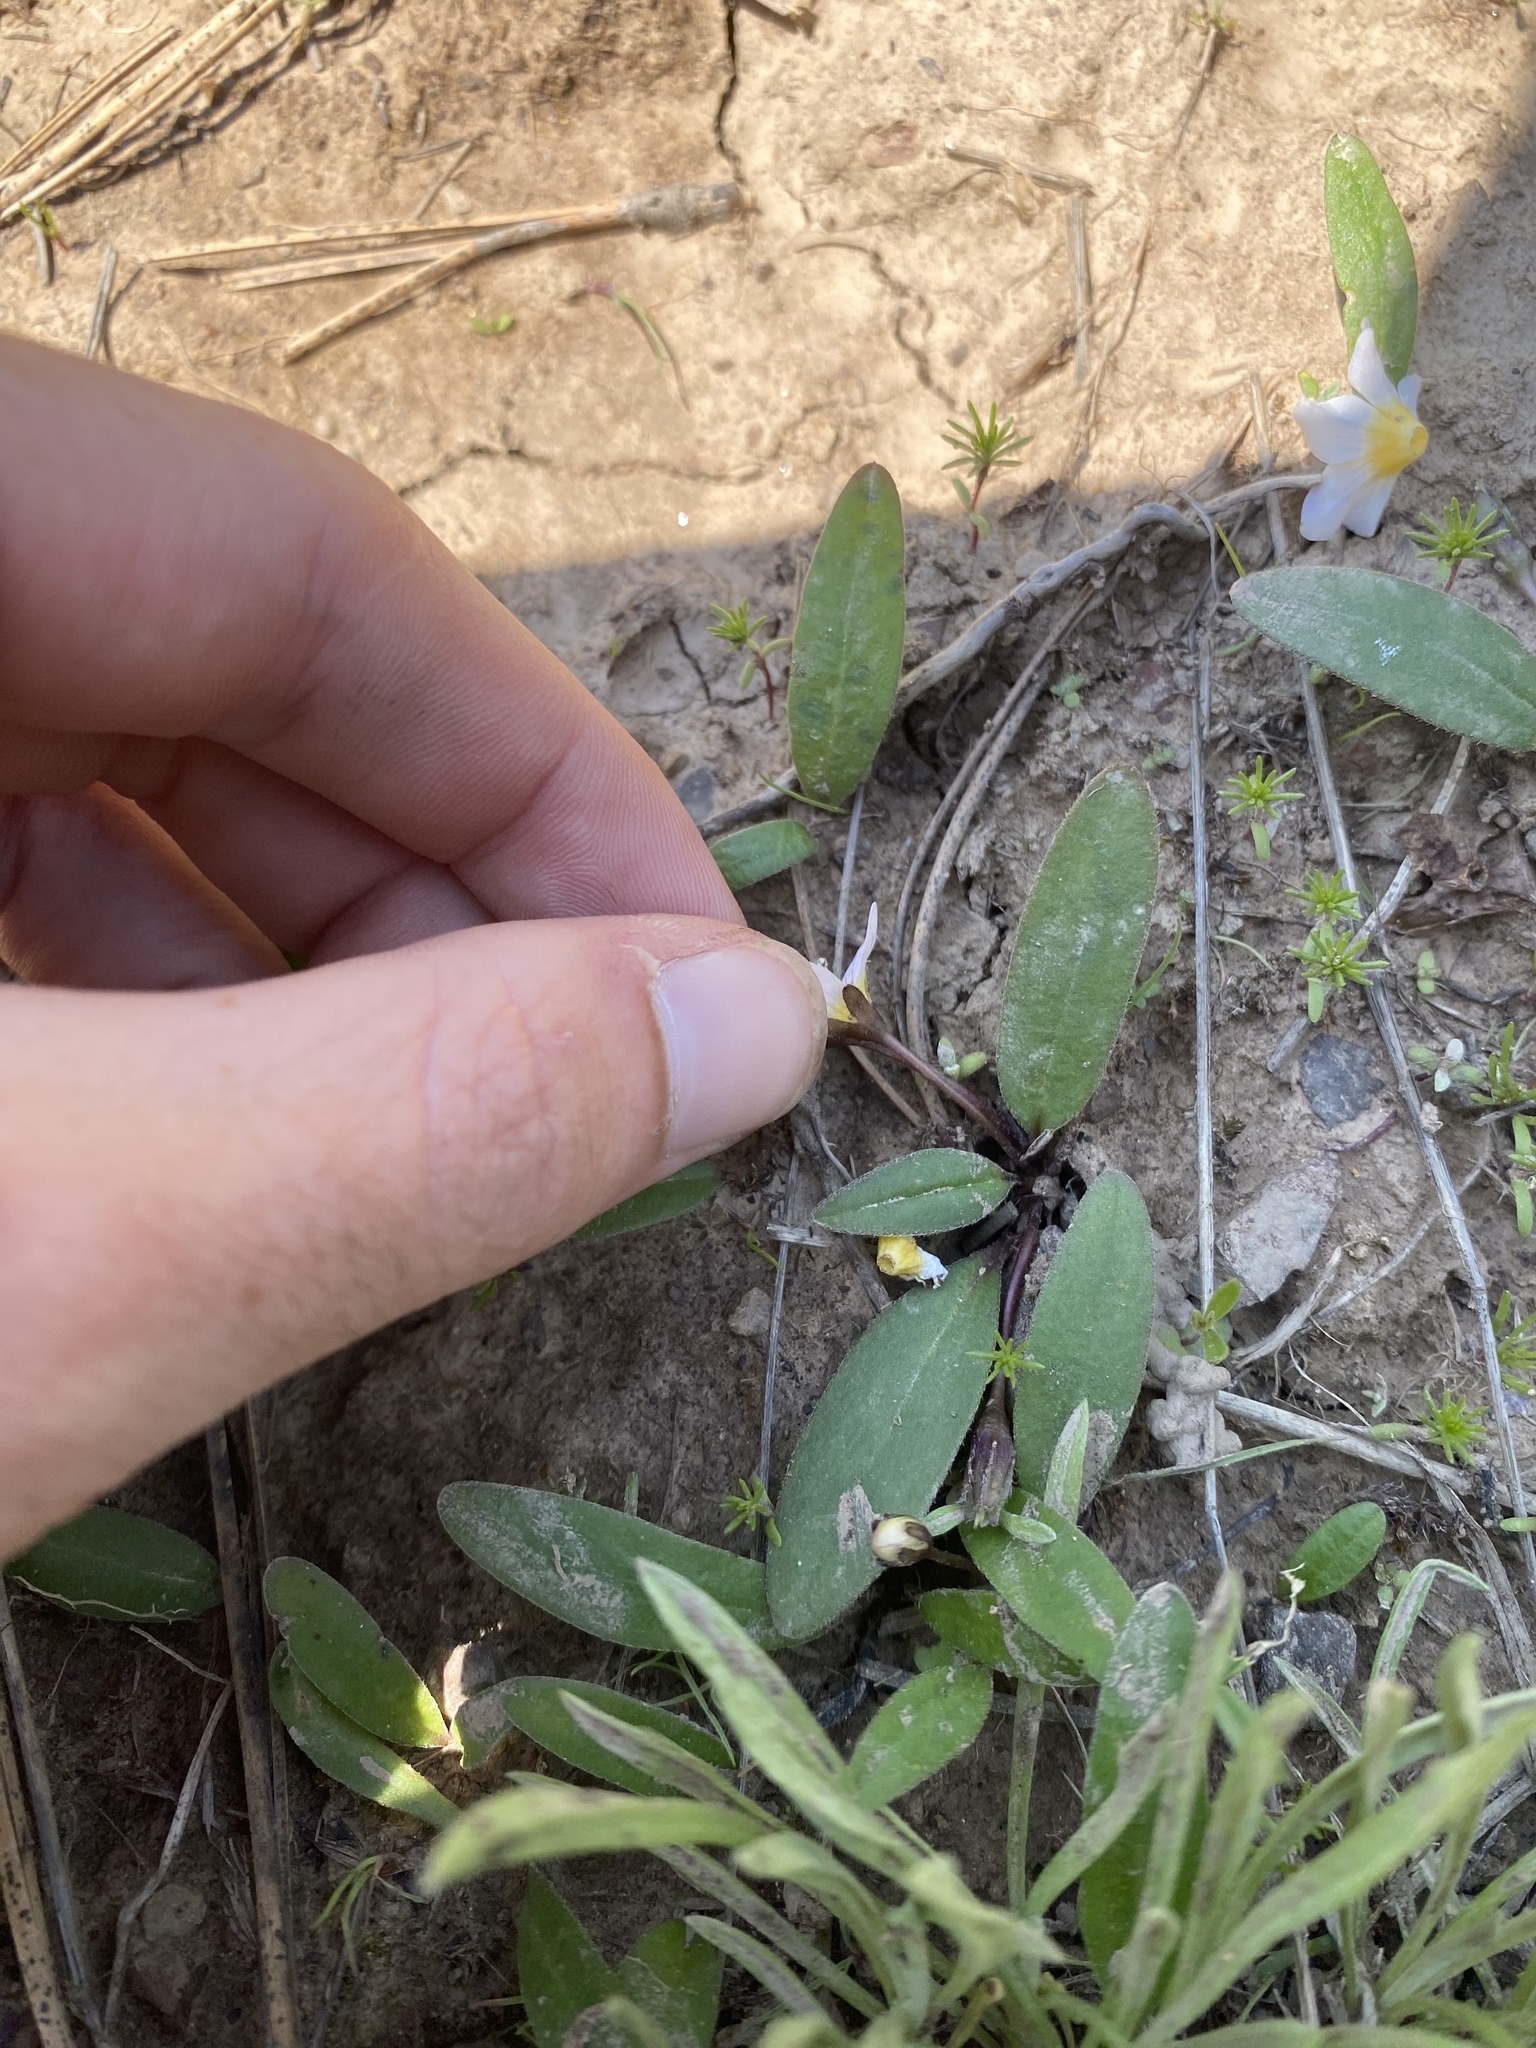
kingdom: Plantae
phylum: Tracheophyta
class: Magnoliopsida
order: Boraginales
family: Hydrophyllaceae
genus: Hesperochiron
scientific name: Hesperochiron pumilus
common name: Dwarf hesperochiron
